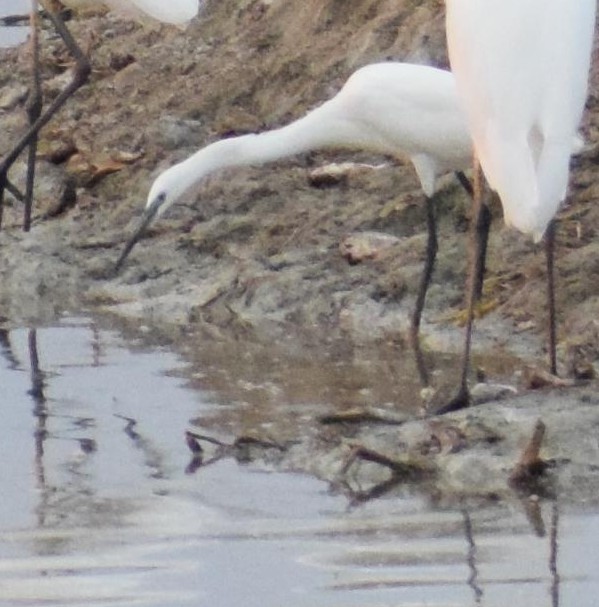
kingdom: Animalia
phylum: Chordata
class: Aves
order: Pelecaniformes
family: Ardeidae
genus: Egretta
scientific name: Egretta garzetta
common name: Little egret
